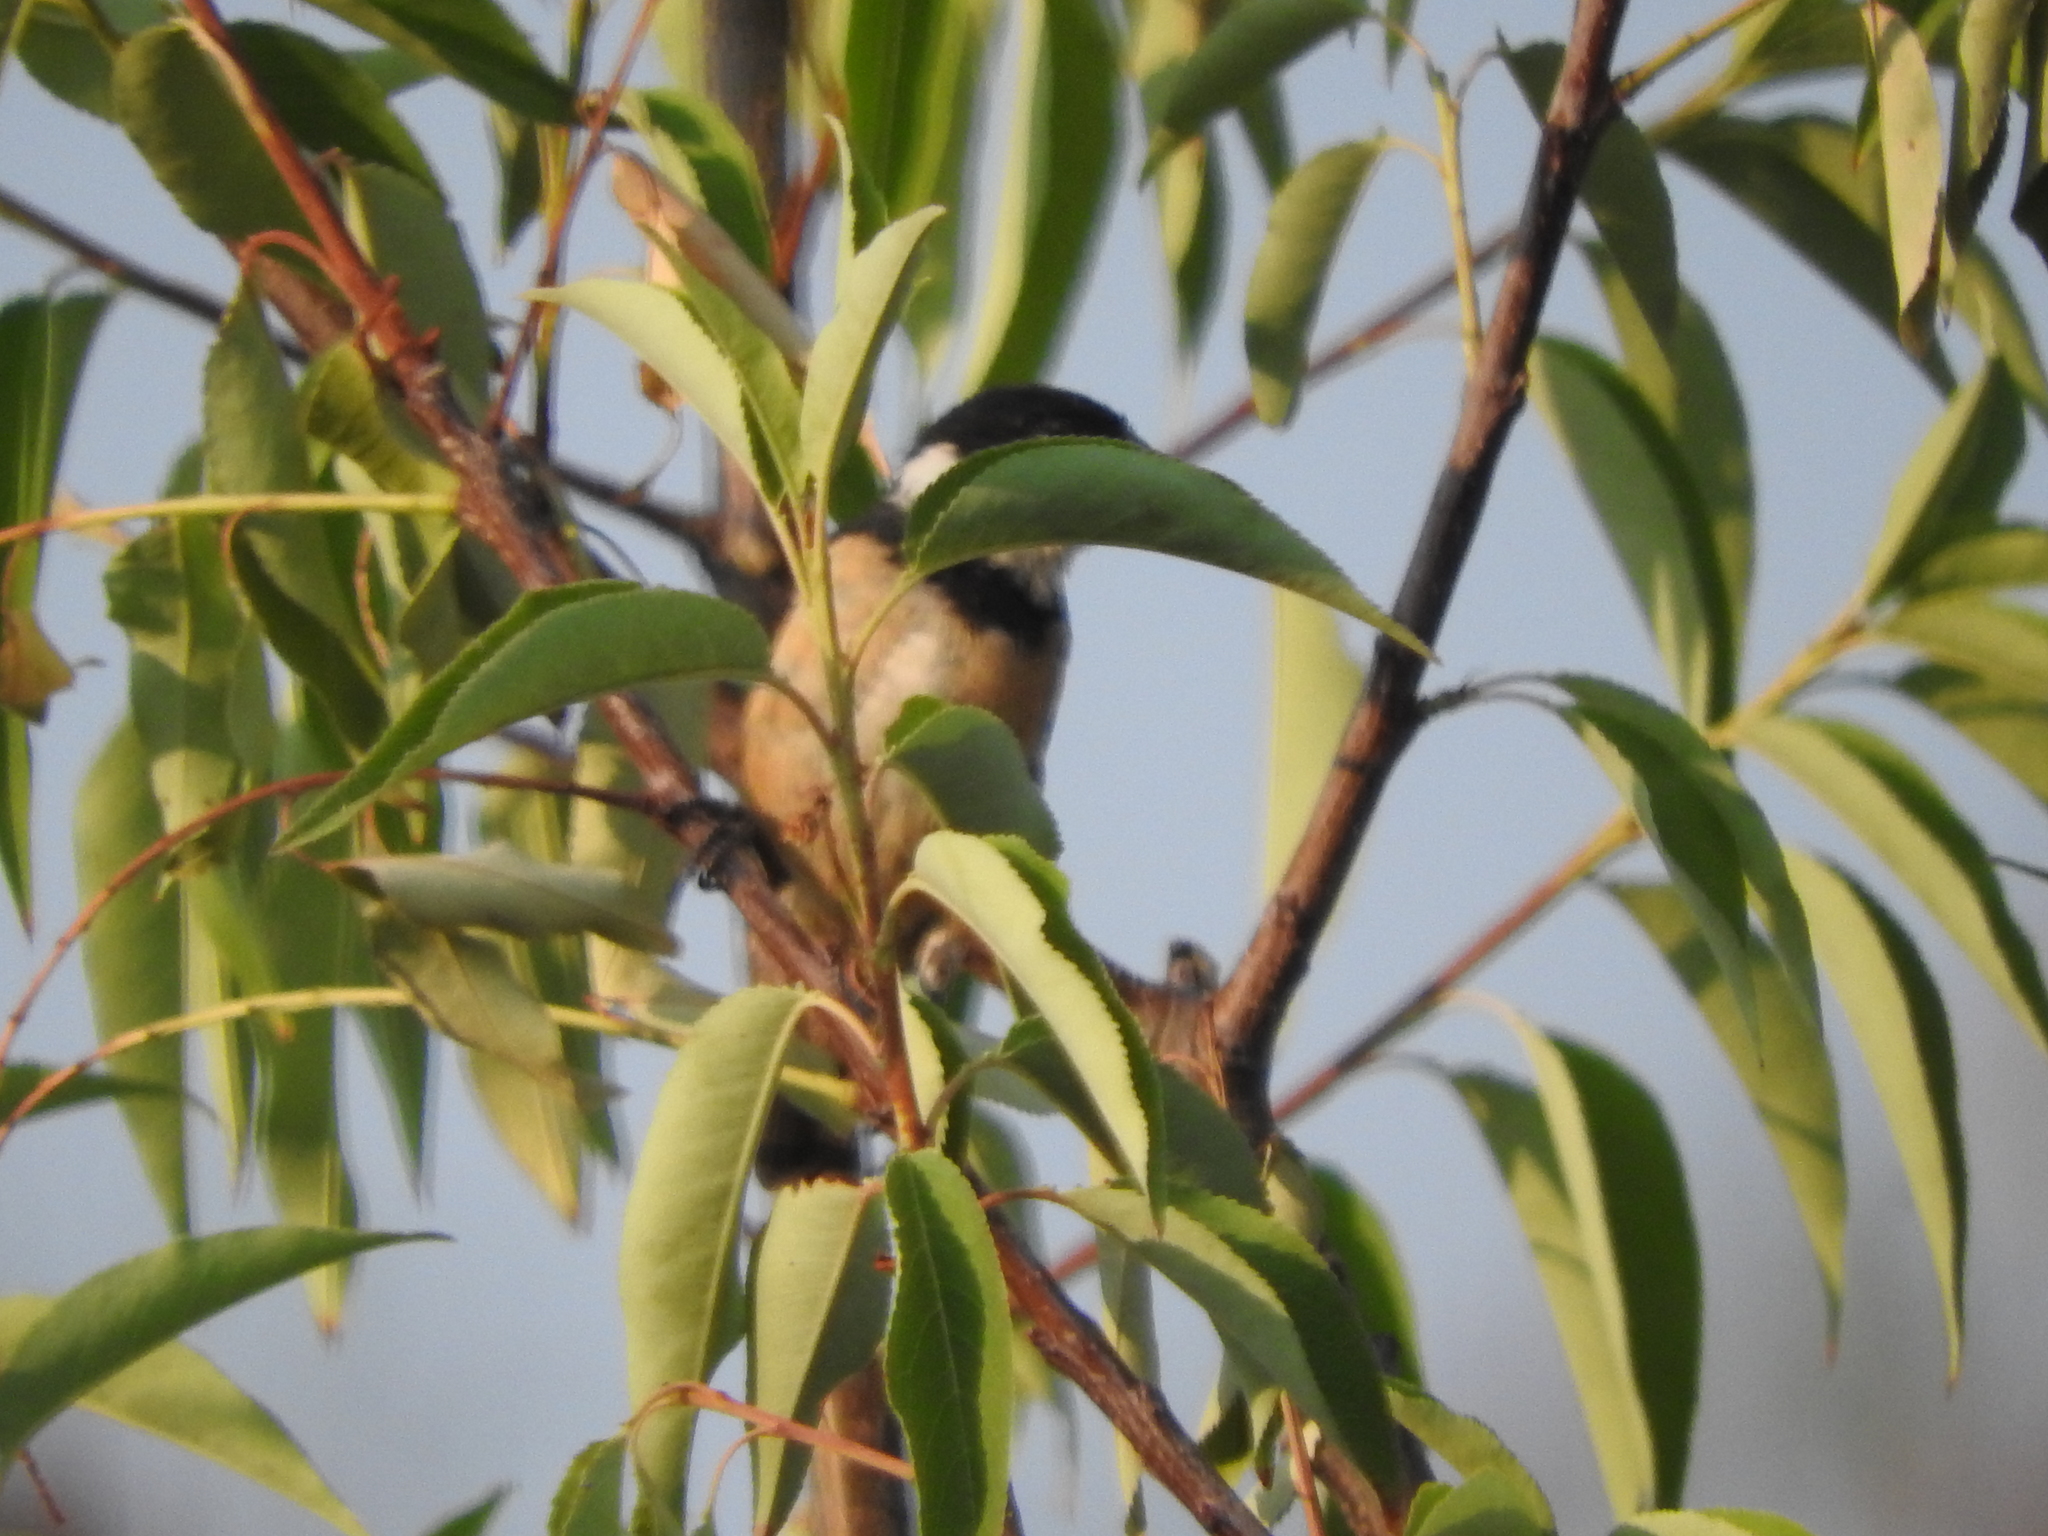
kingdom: Animalia
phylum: Chordata
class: Aves
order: Passeriformes
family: Thraupidae
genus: Sporophila
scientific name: Sporophila torqueola
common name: White-collared seedeater
